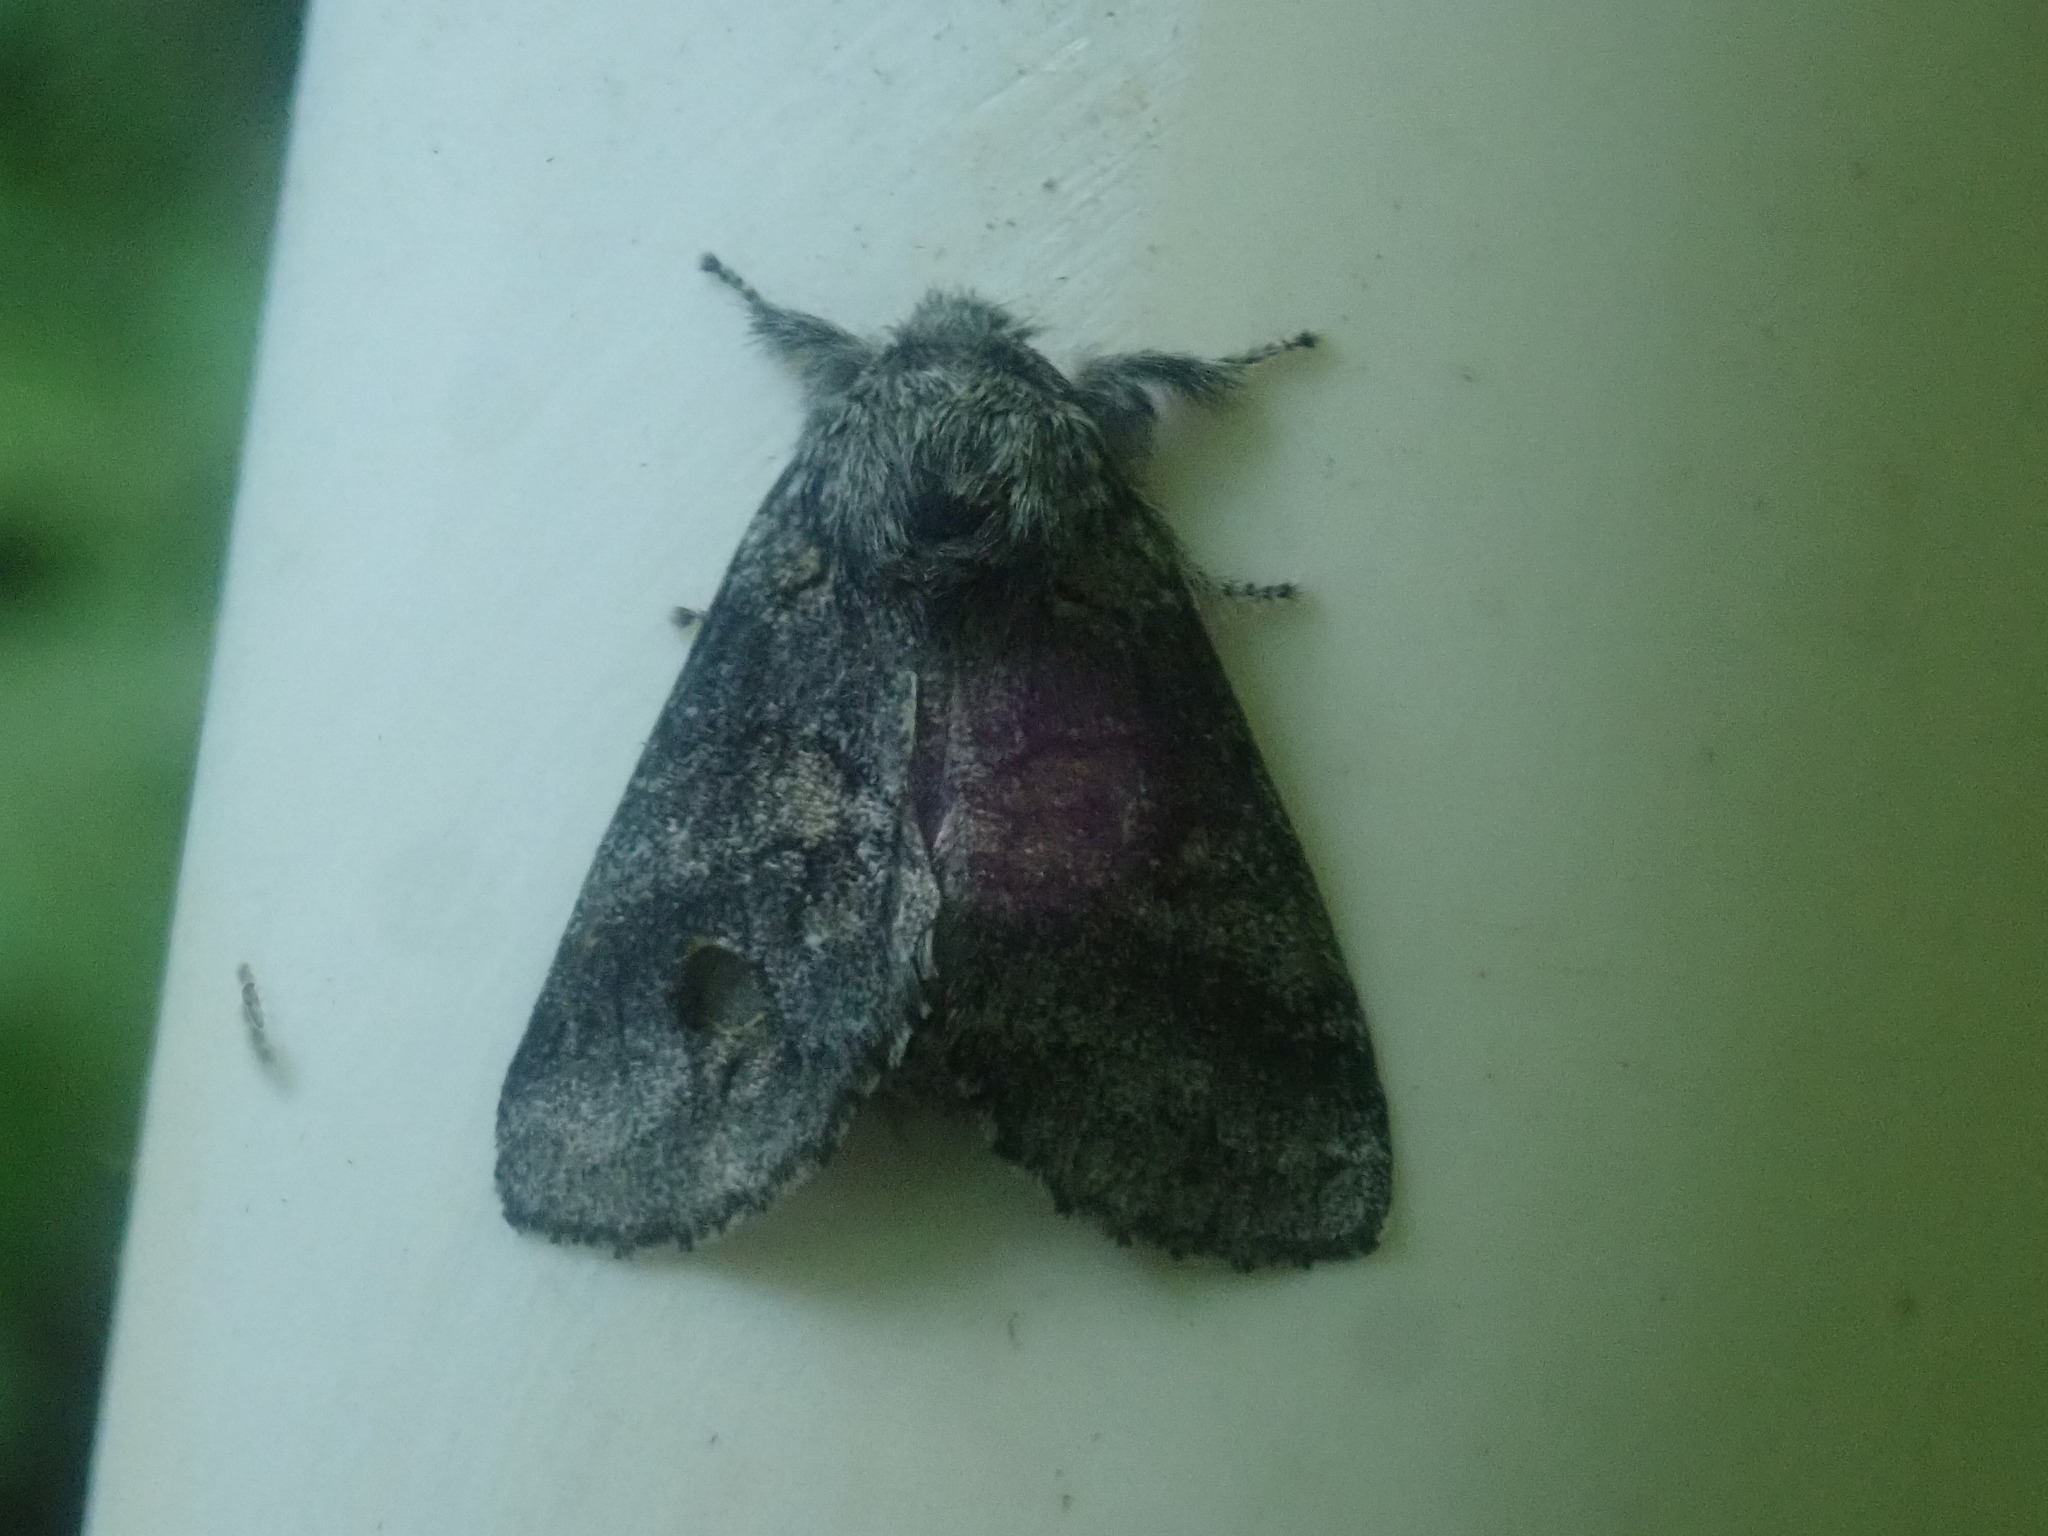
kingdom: Animalia
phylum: Arthropoda
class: Insecta
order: Lepidoptera
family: Notodontidae
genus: Gluphisia
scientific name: Gluphisia septentrionis
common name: Common gluphisia
